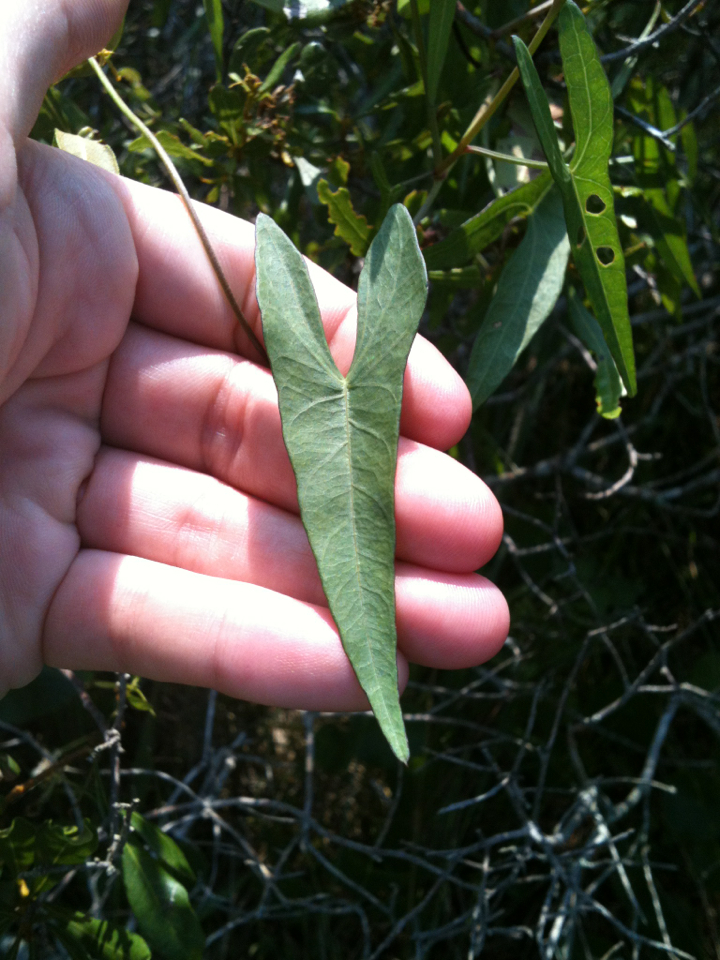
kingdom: Plantae
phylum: Tracheophyta
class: Magnoliopsida
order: Solanales
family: Convolvulaceae
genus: Ipomoea
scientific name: Ipomoea sagittata
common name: Saltmarsh morning glory
